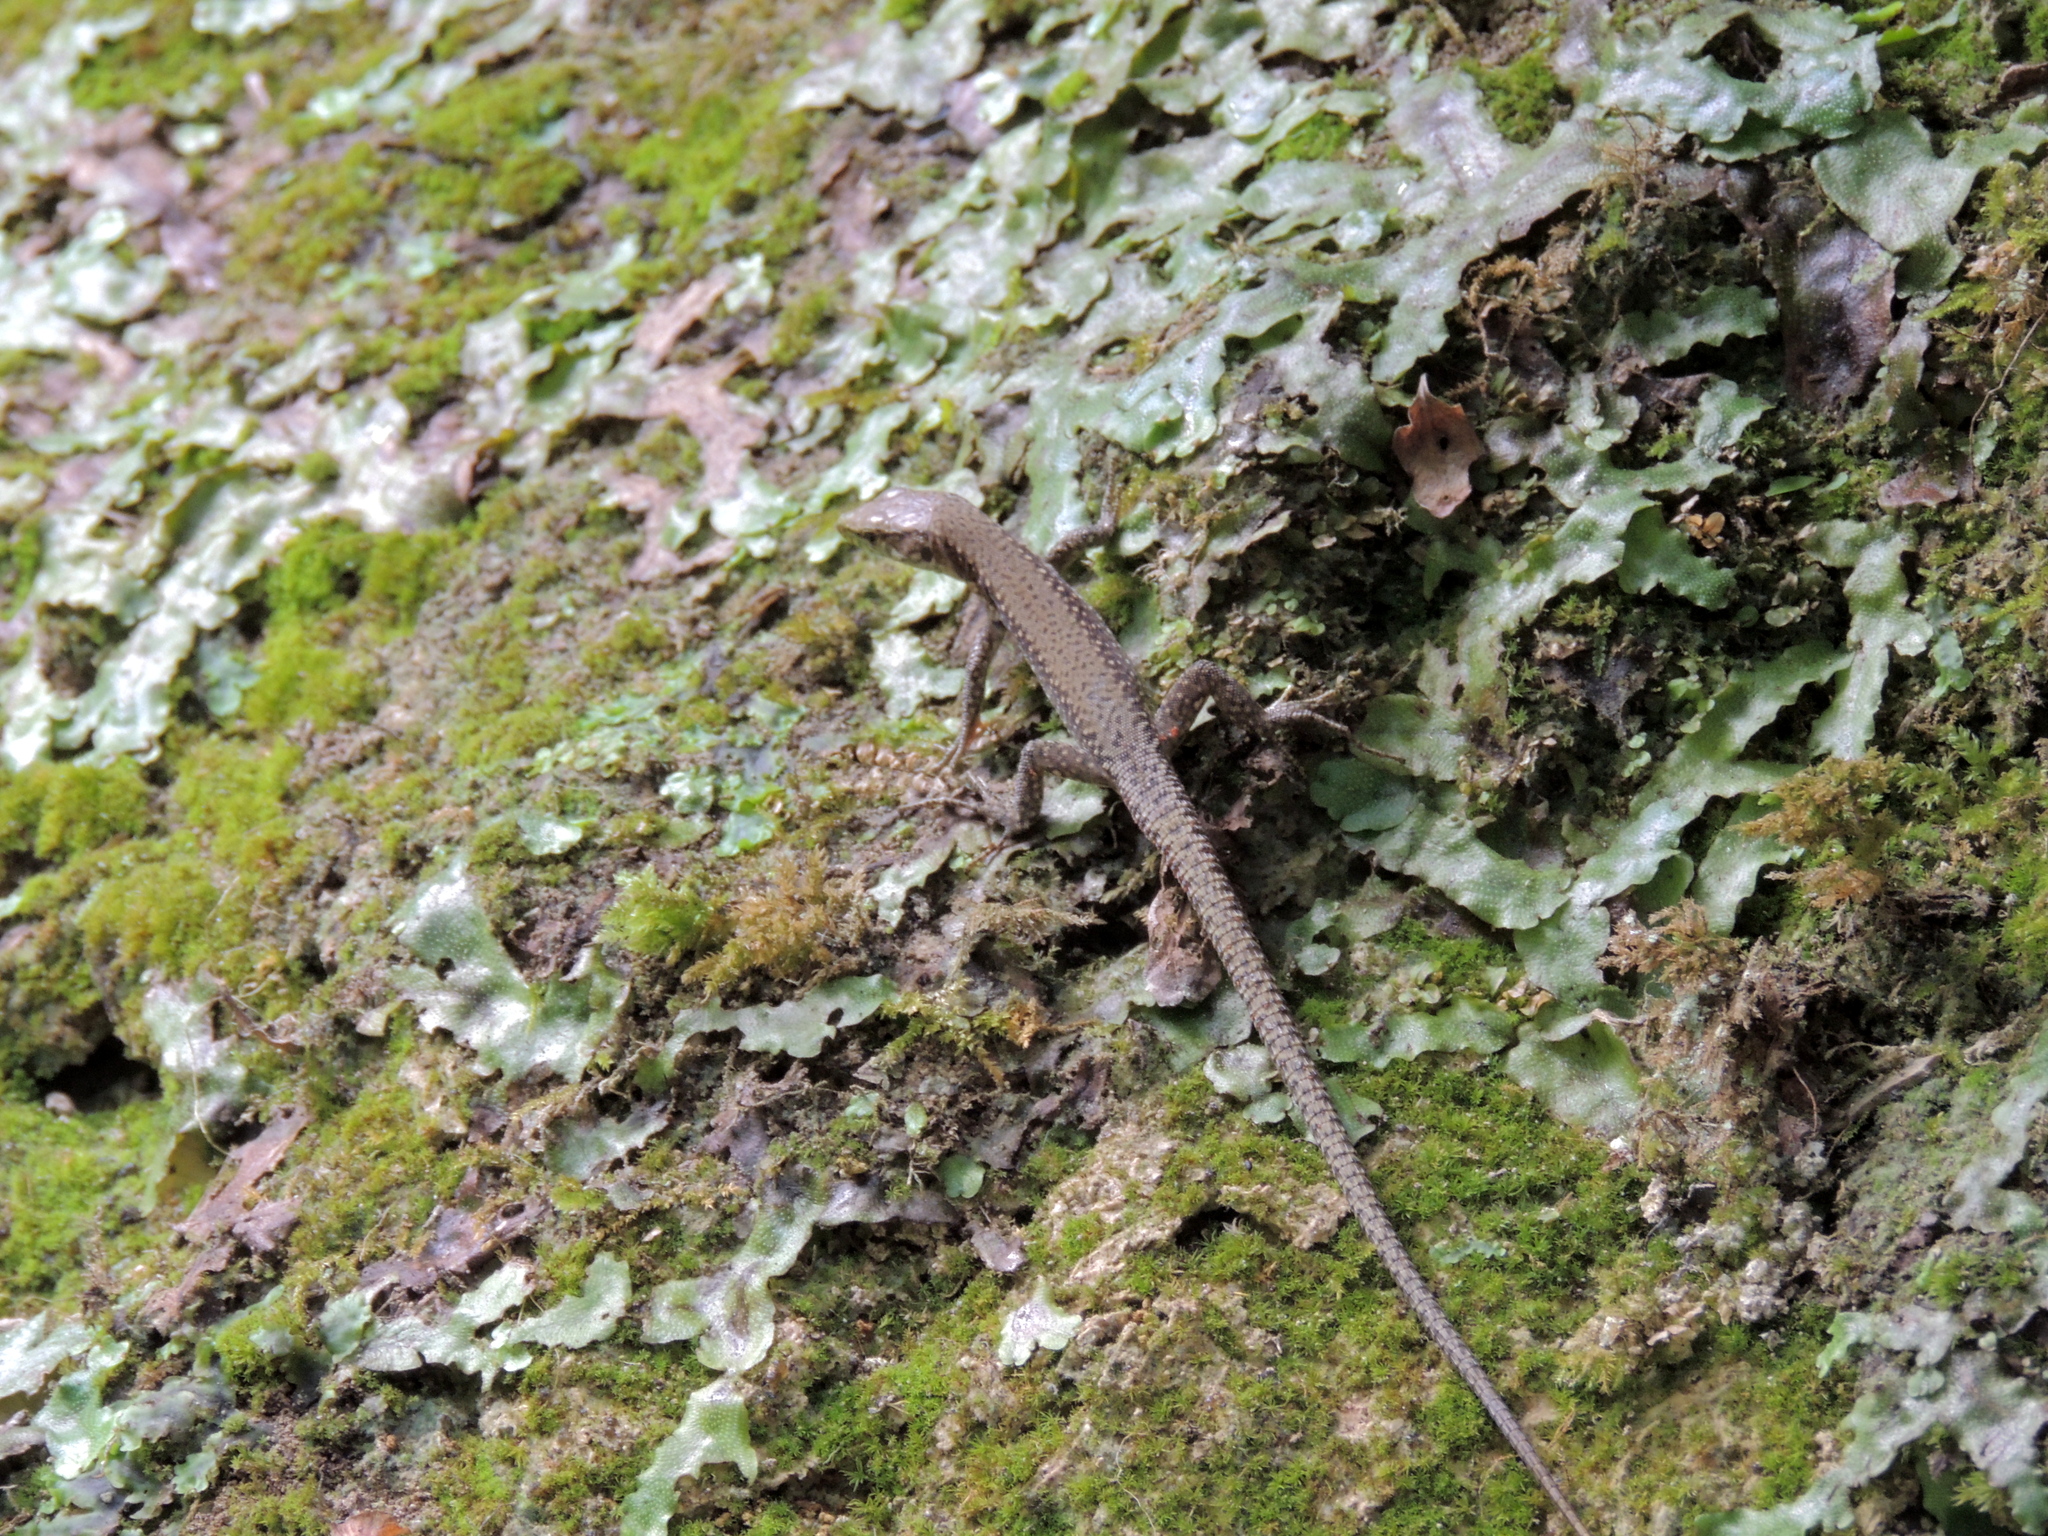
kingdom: Animalia
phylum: Chordata
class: Squamata
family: Lacertidae
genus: Darevskia
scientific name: Darevskia brauneri
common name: Brauner's rock lizard
